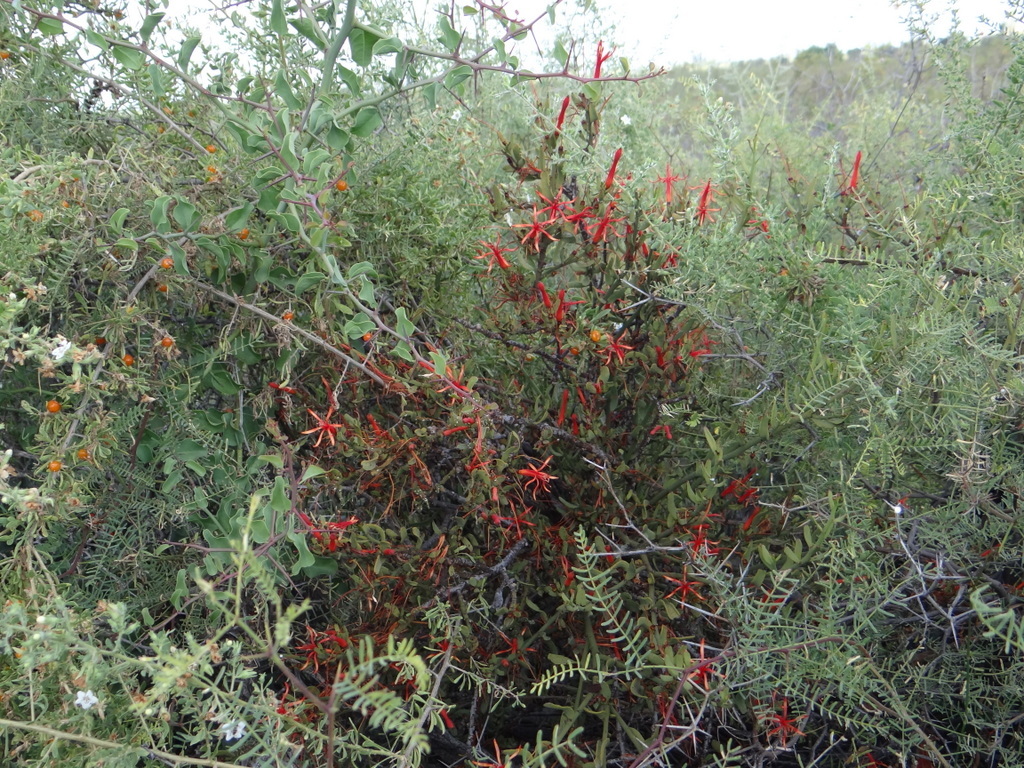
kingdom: Plantae
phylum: Tracheophyta
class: Magnoliopsida
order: Santalales
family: Loranthaceae
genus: Ligaria
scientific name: Ligaria cuneifolia
